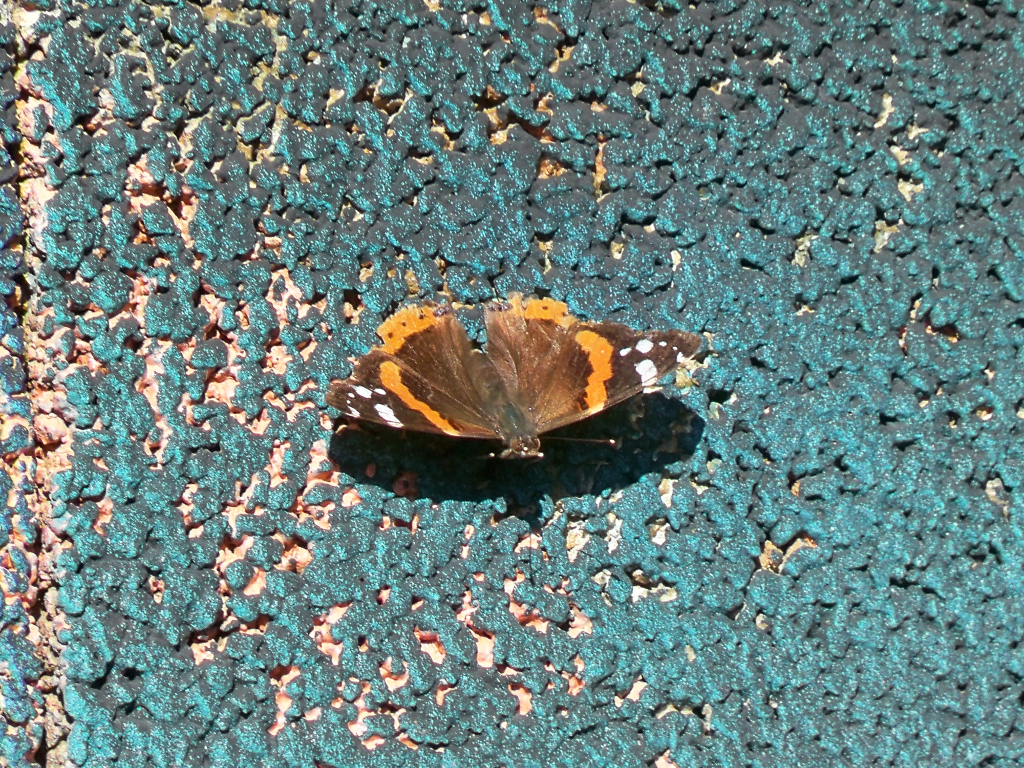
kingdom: Animalia
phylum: Arthropoda
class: Insecta
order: Lepidoptera
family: Nymphalidae
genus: Vanessa
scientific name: Vanessa atalanta
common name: Red admiral
